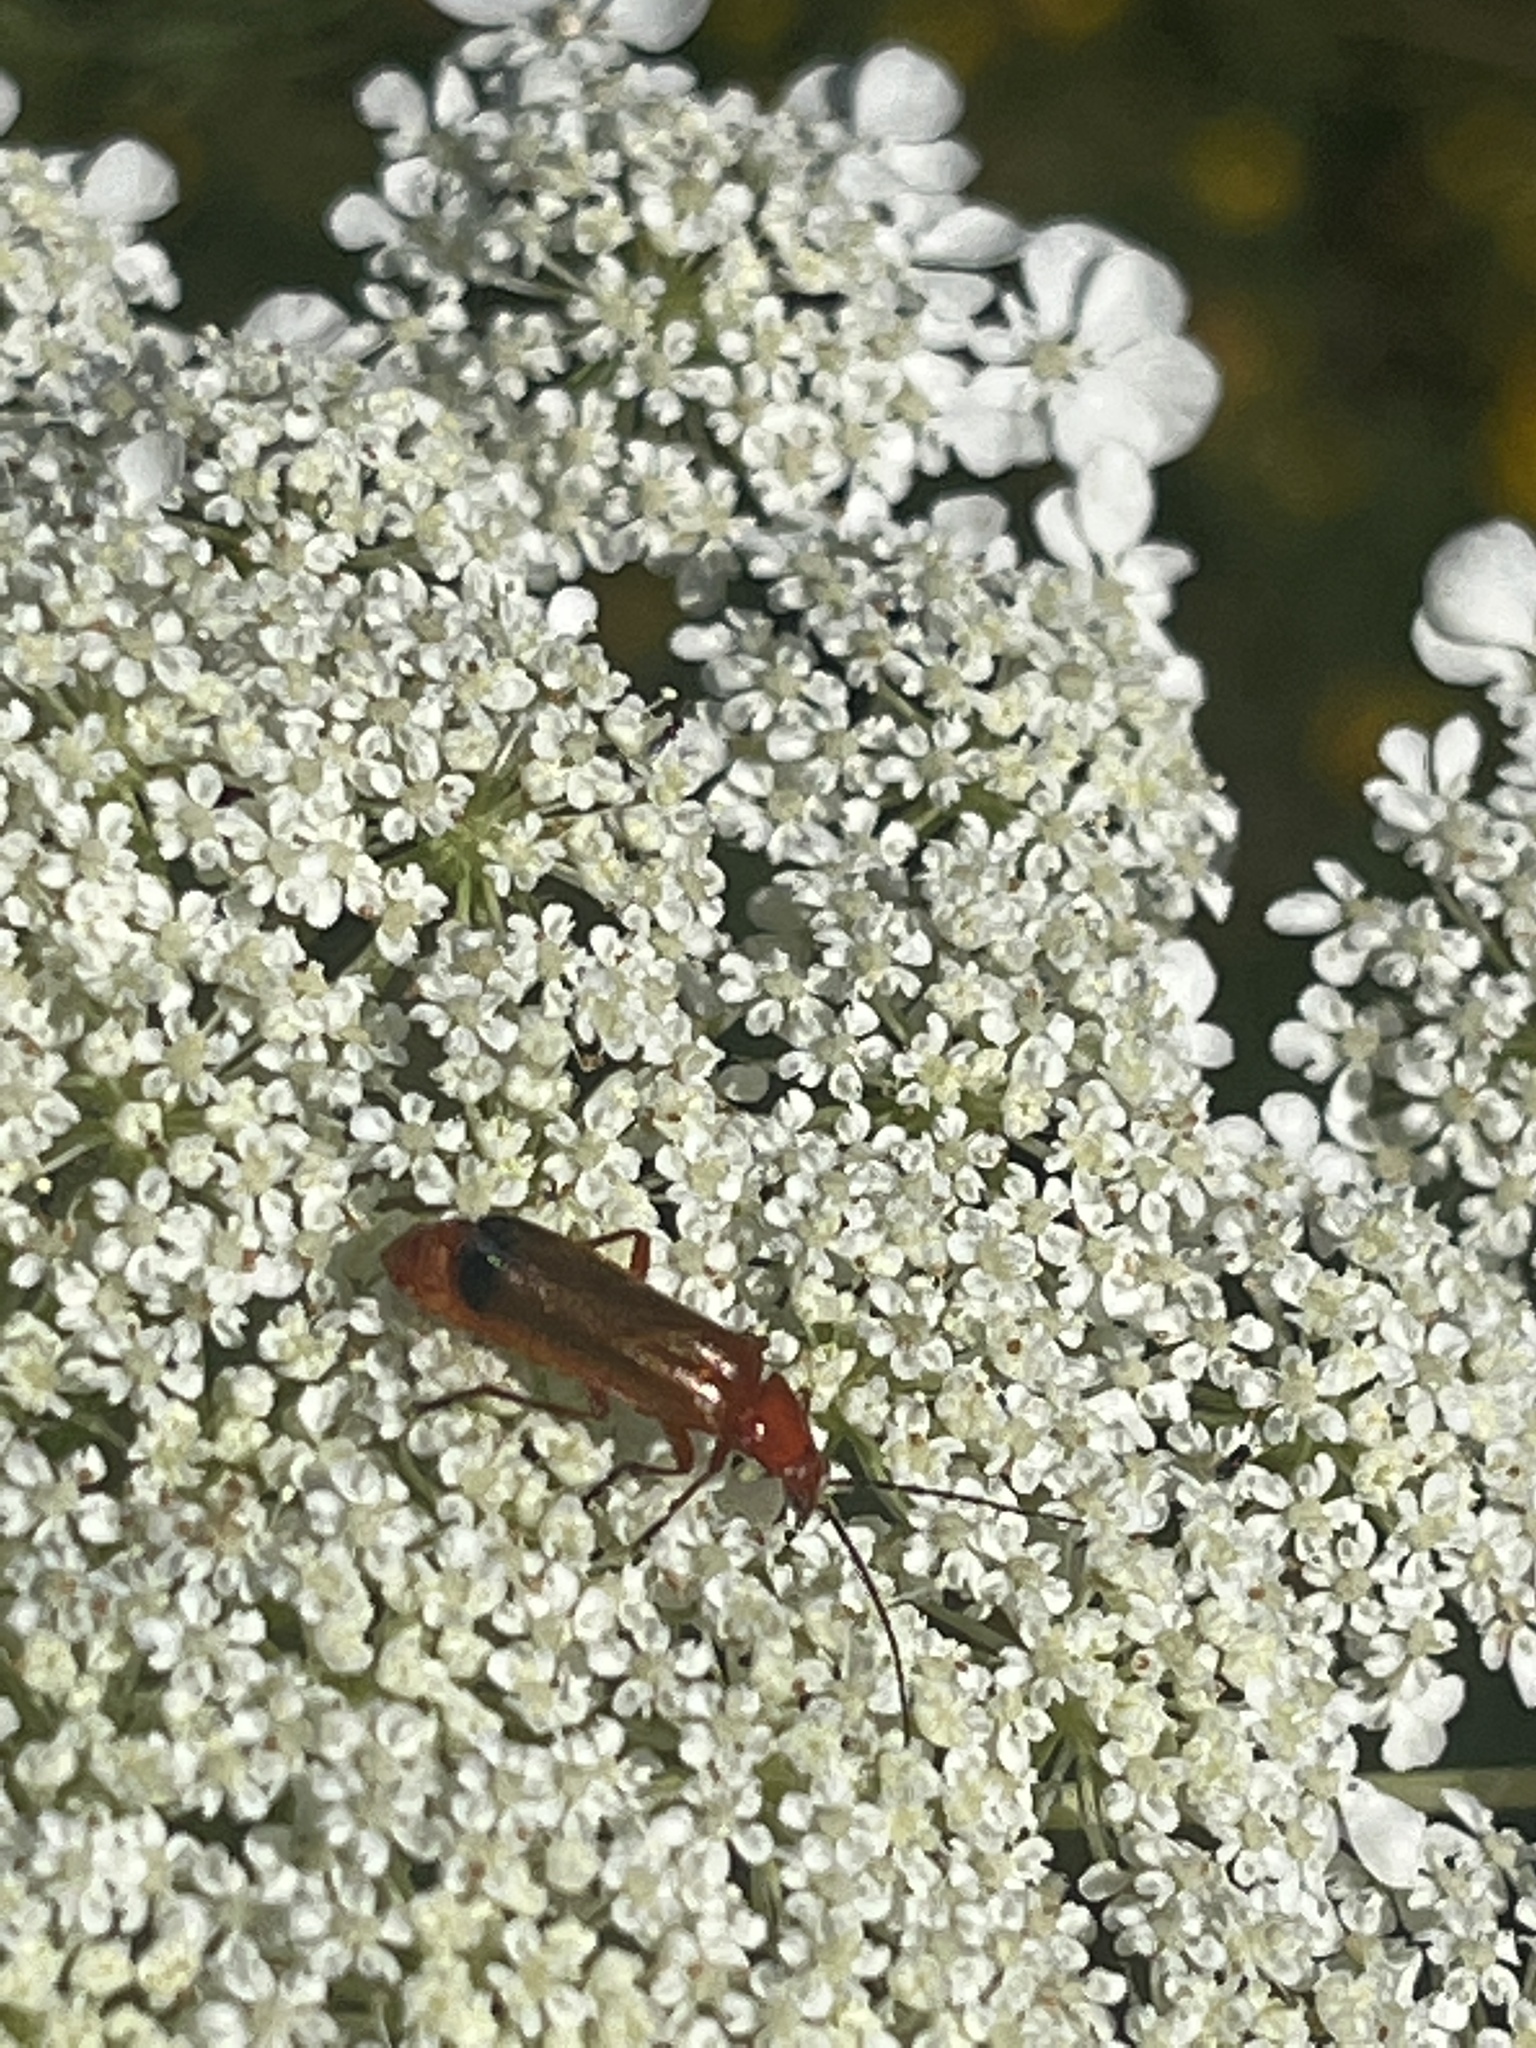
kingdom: Animalia
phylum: Arthropoda
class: Insecta
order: Coleoptera
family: Cantharidae
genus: Rhagonycha
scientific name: Rhagonycha fulva
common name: Common red soldier beetle
